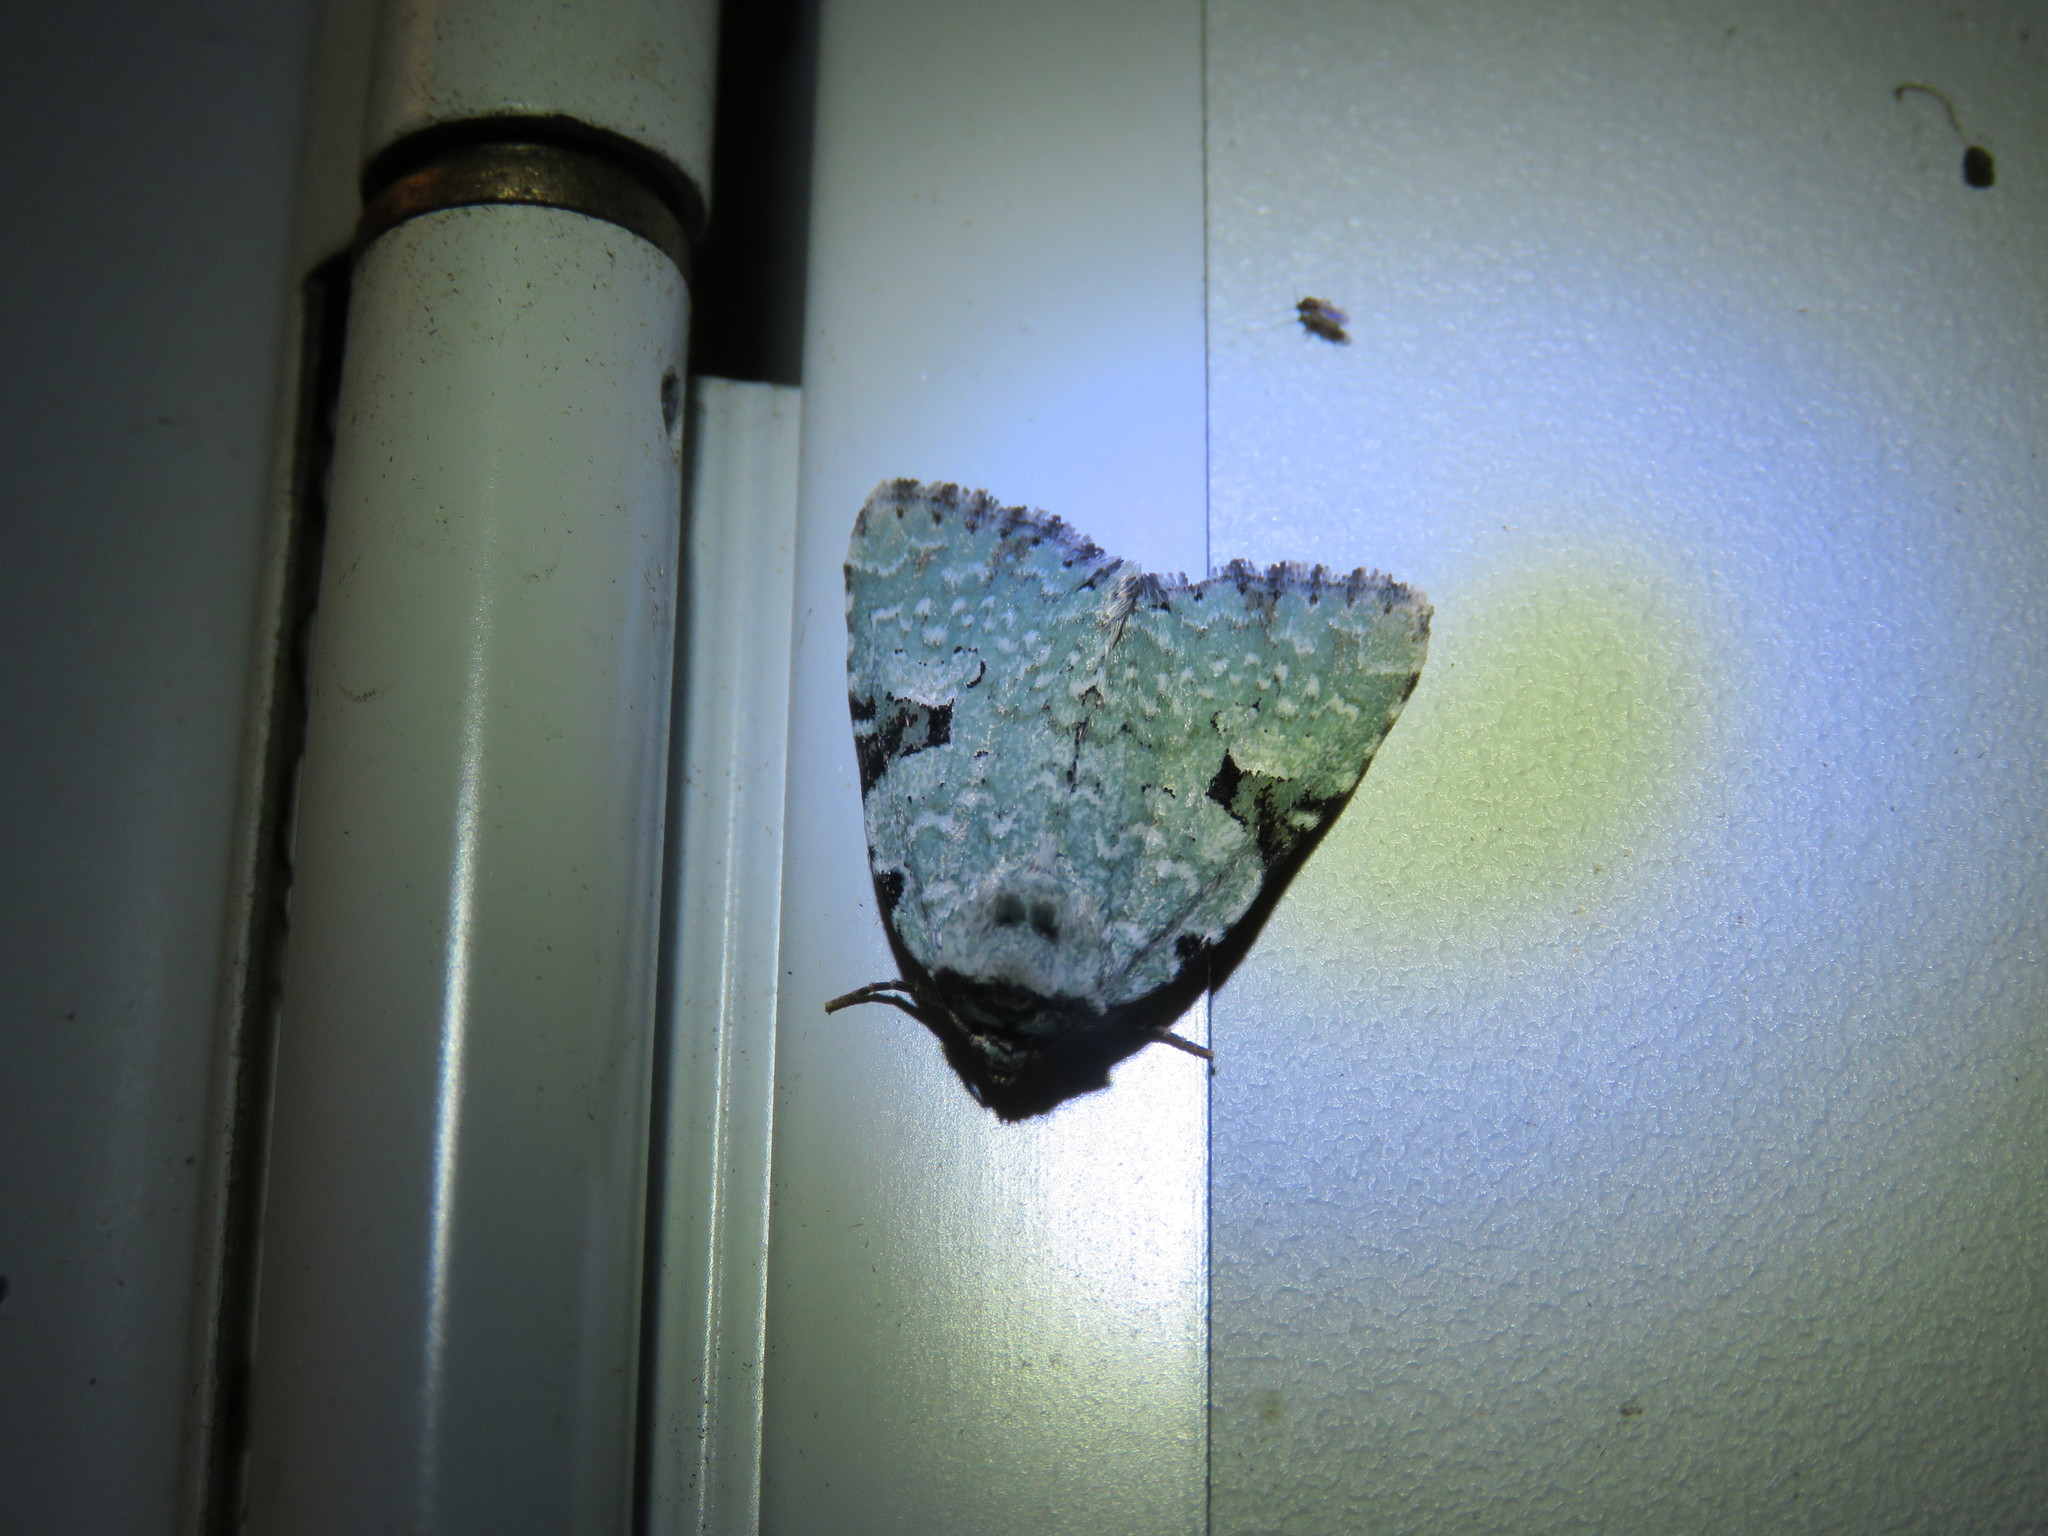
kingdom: Animalia
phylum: Arthropoda
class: Insecta
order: Lepidoptera
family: Noctuidae
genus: Leuconycta
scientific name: Leuconycta diphteroides
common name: Green leuconycta moth
